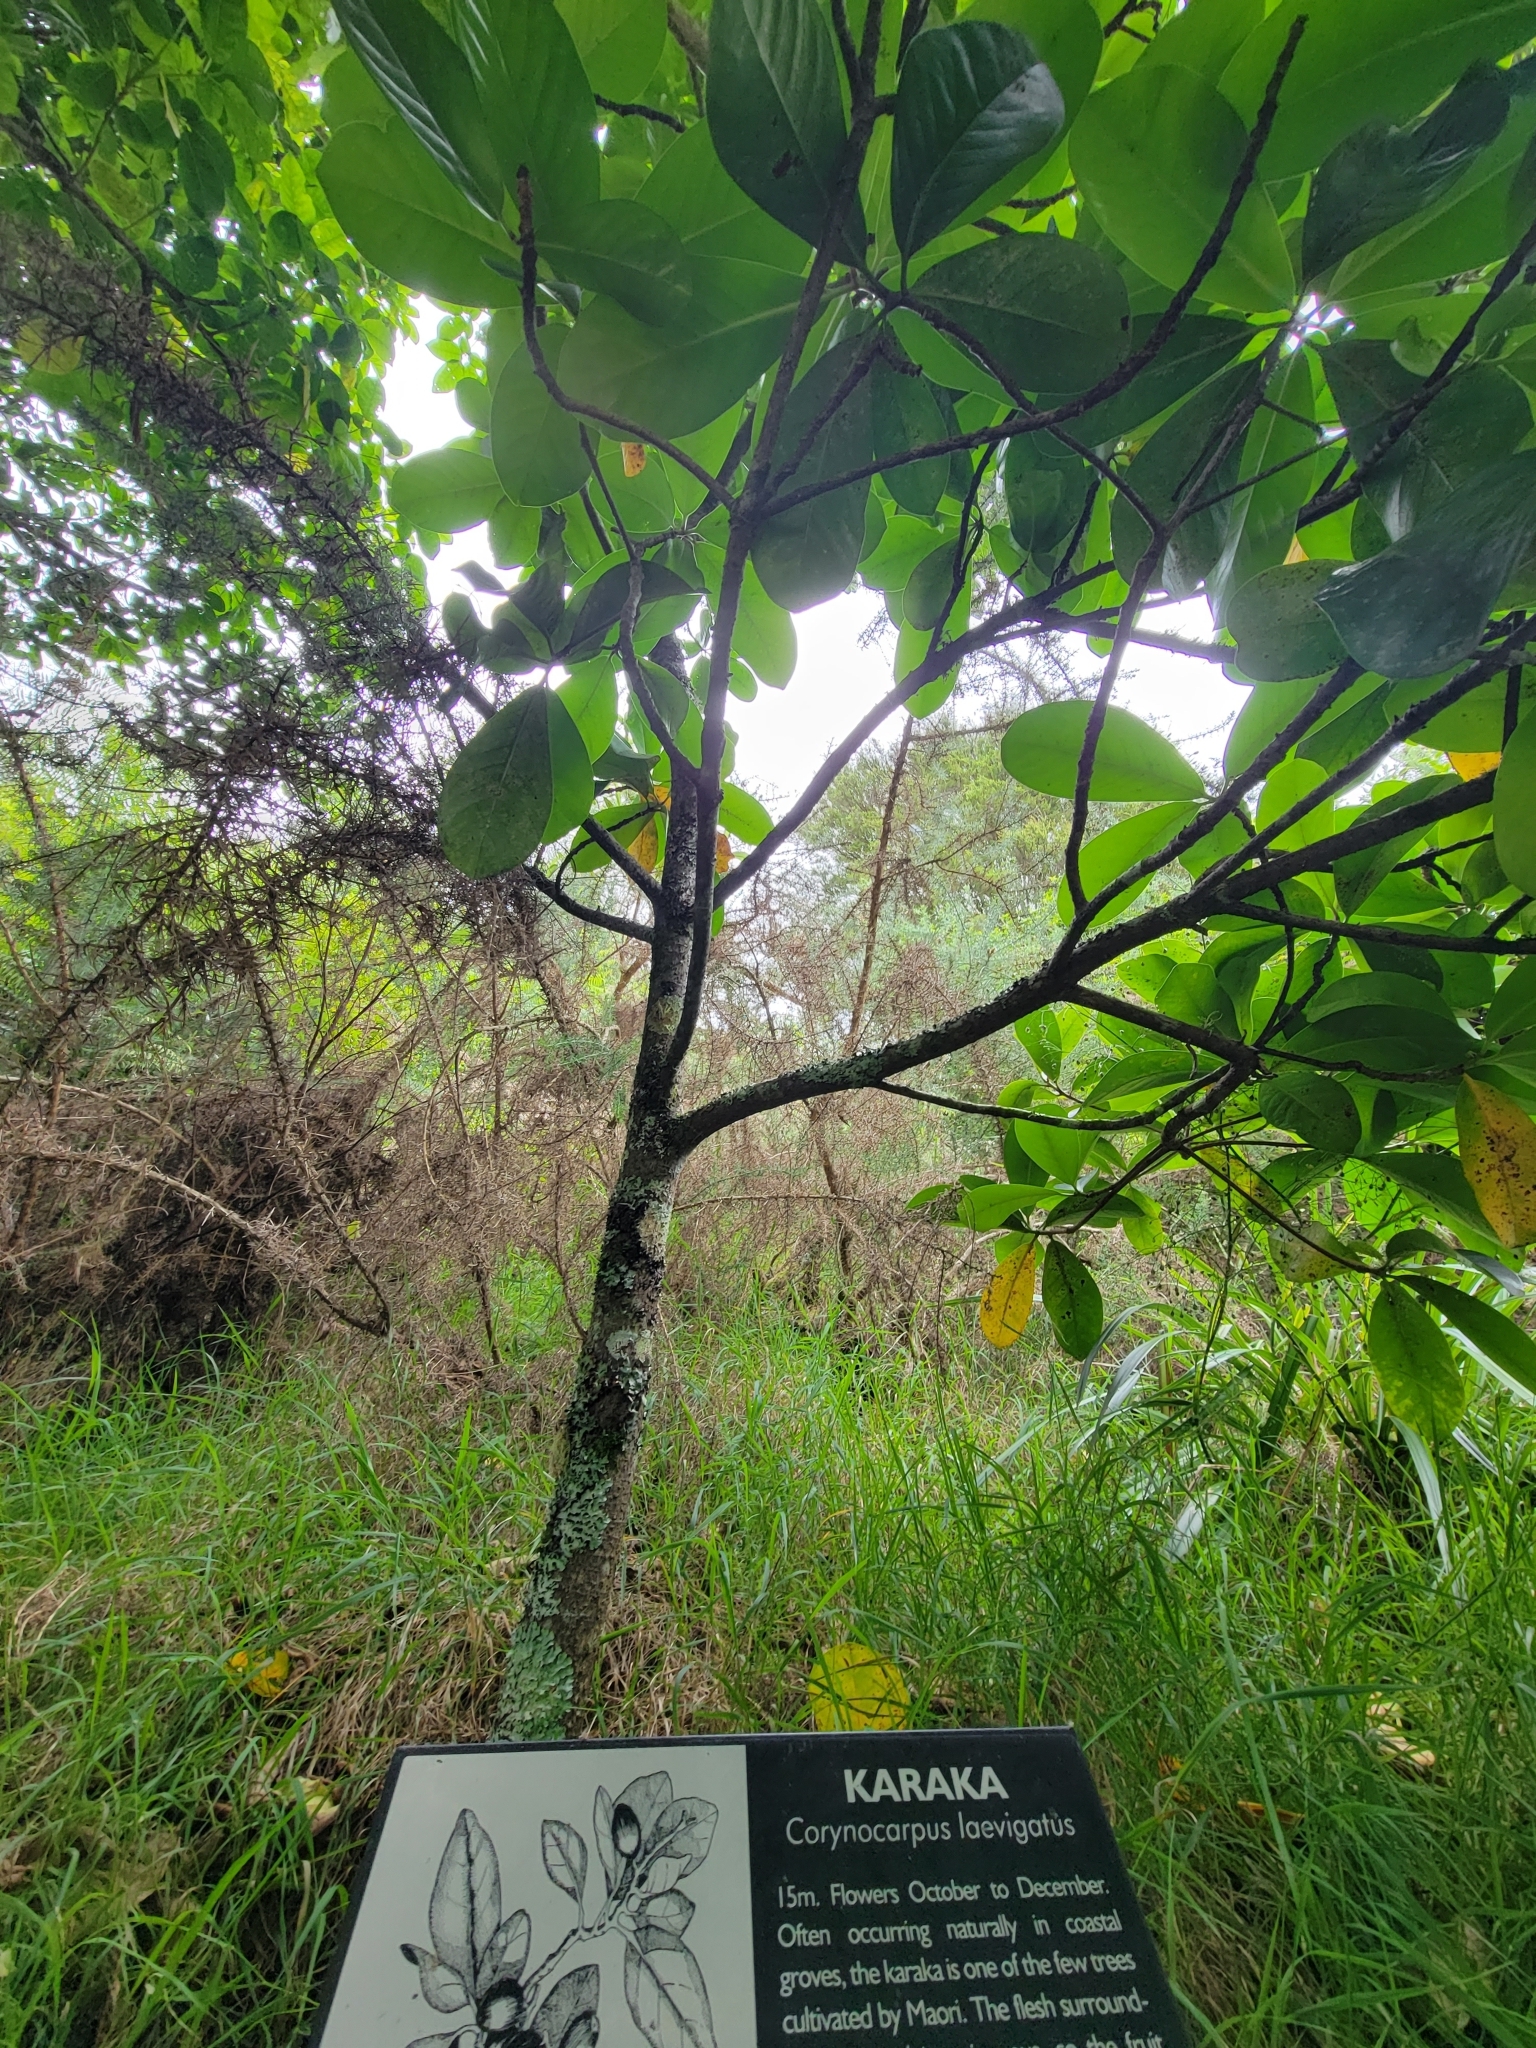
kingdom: Plantae
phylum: Tracheophyta
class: Magnoliopsida
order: Cucurbitales
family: Corynocarpaceae
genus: Corynocarpus
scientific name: Corynocarpus laevigatus
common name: New zealand laurel
